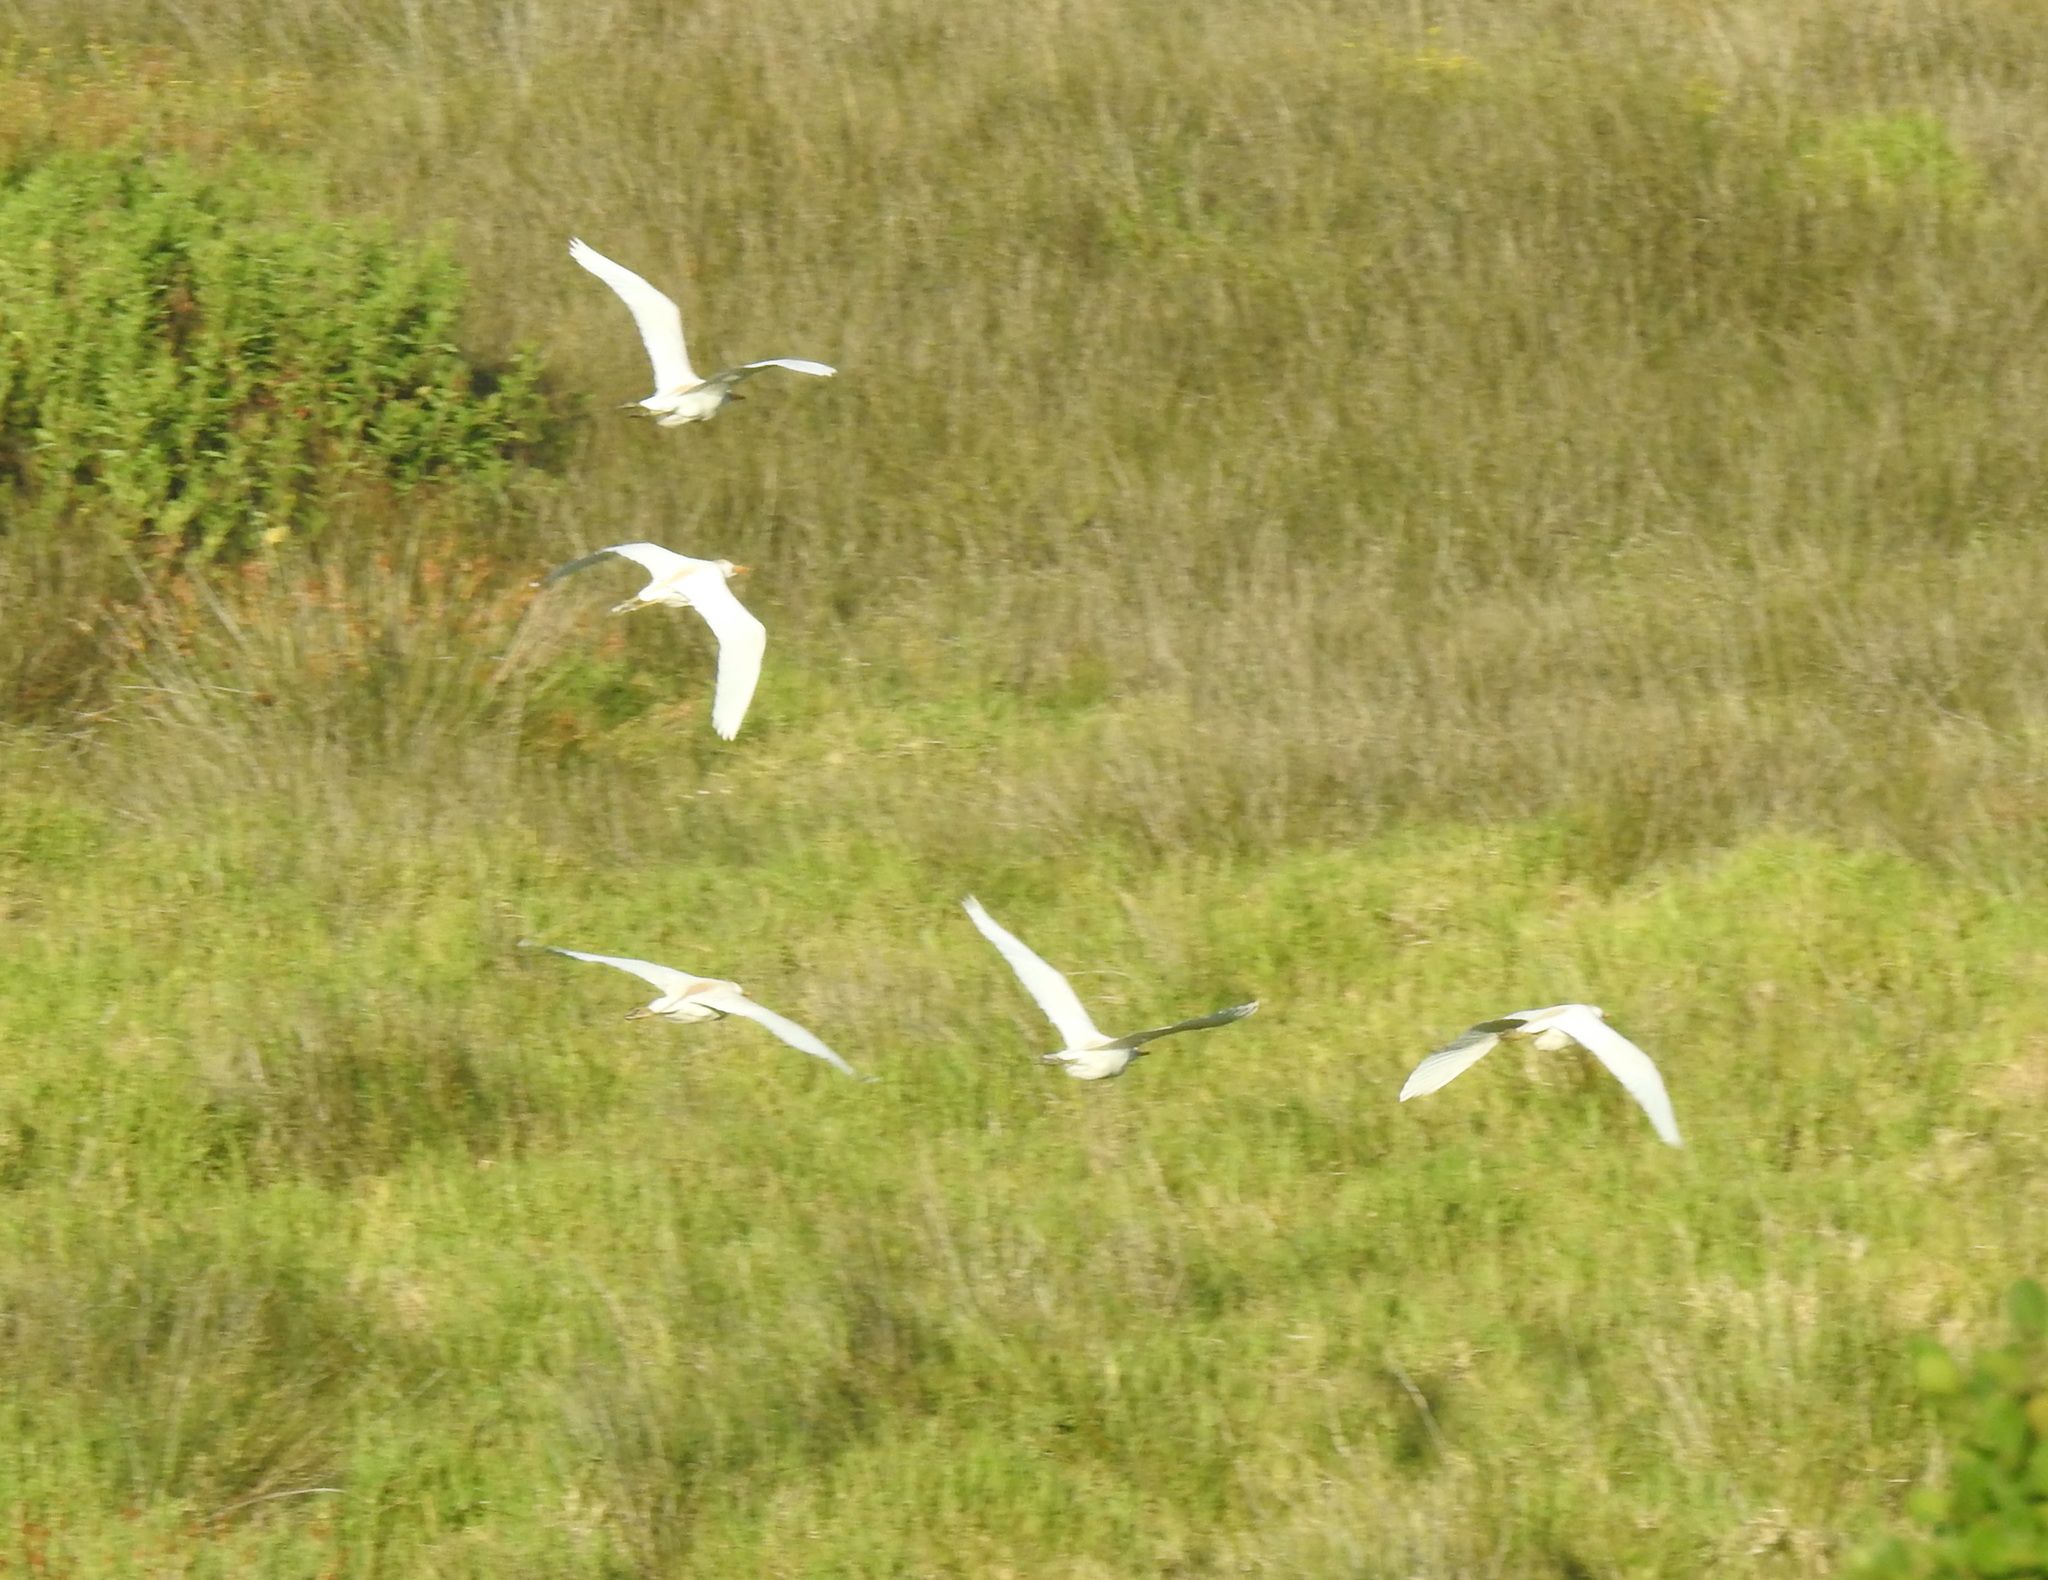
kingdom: Animalia
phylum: Chordata
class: Aves
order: Pelecaniformes
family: Ardeidae
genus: Bubulcus
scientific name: Bubulcus ibis
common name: Cattle egret
